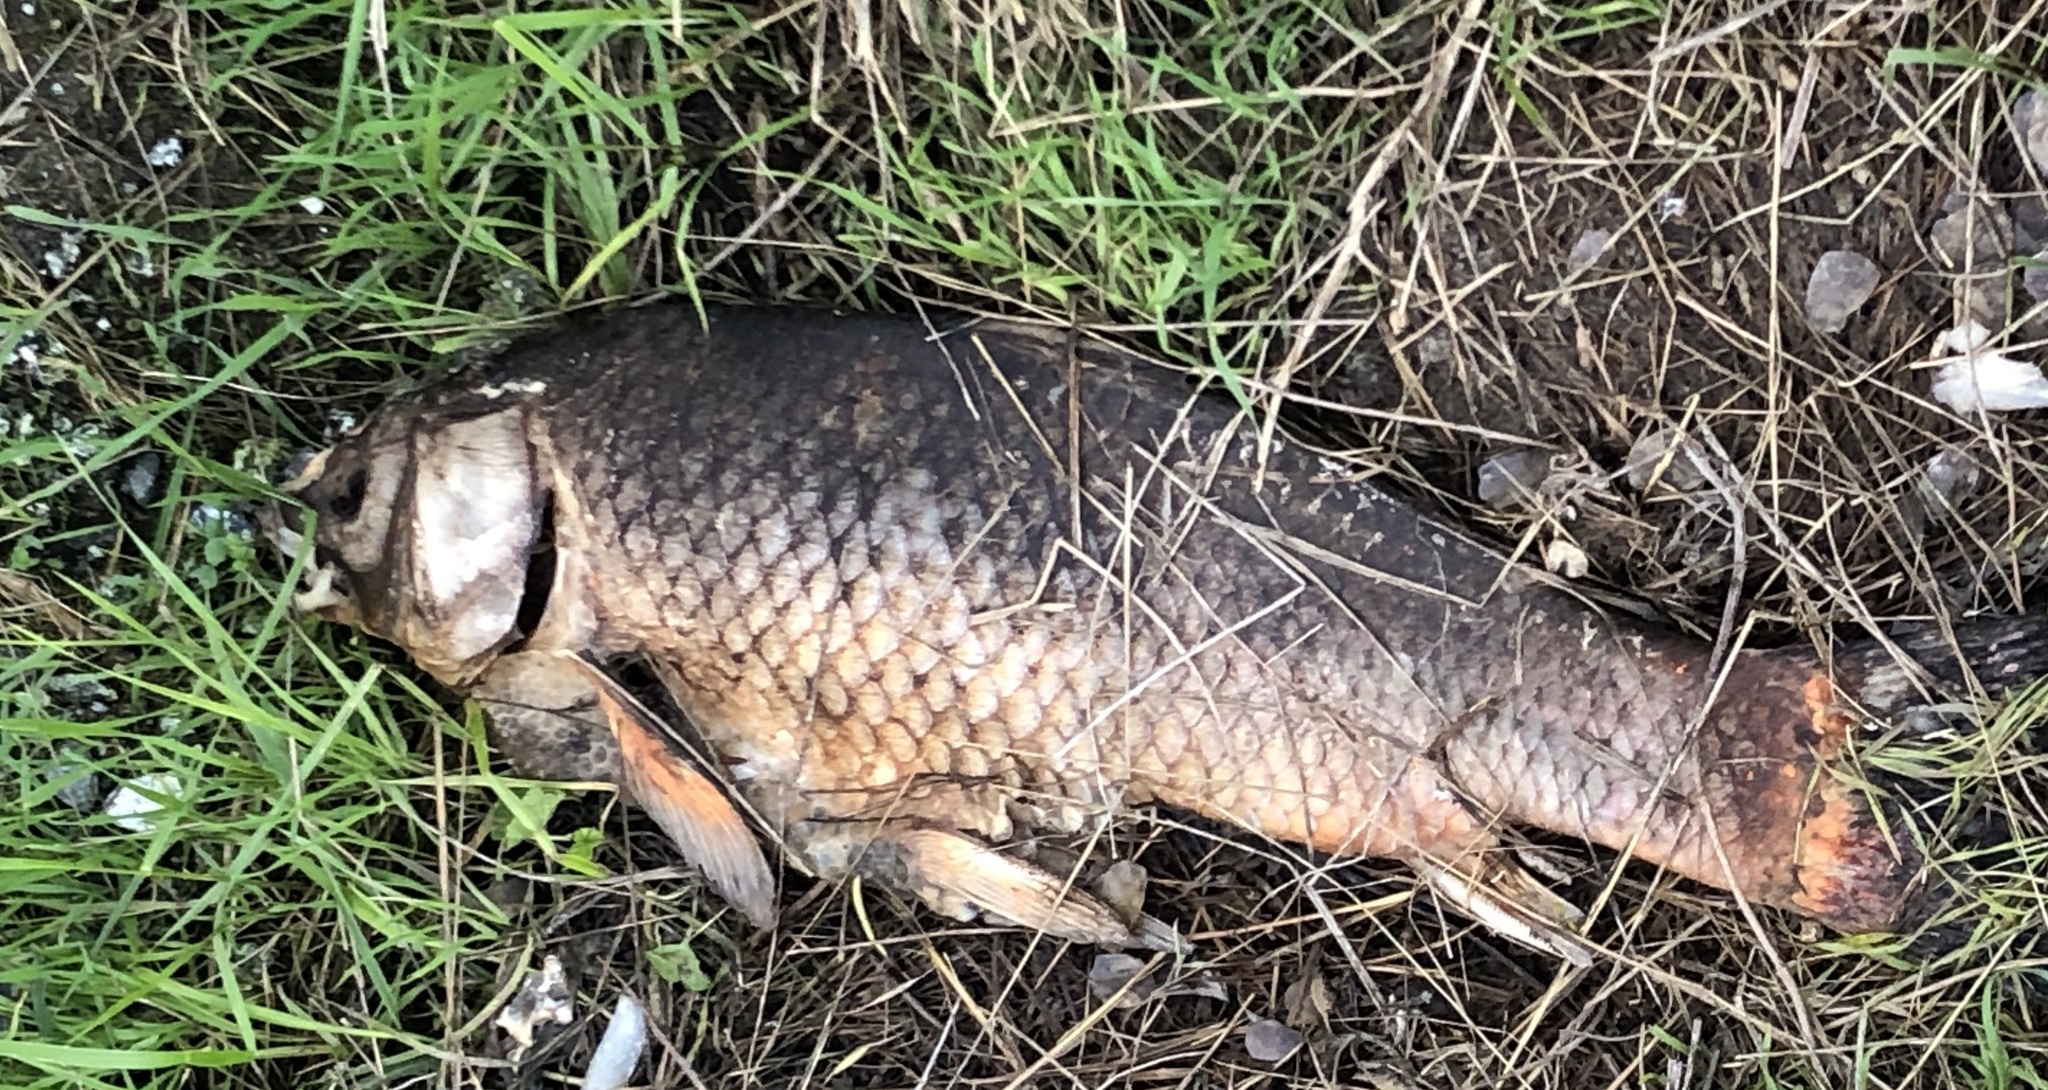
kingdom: Animalia
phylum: Chordata
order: Cypriniformes
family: Cyprinidae
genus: Cyprinus
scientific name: Cyprinus carpio
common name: Common carp
